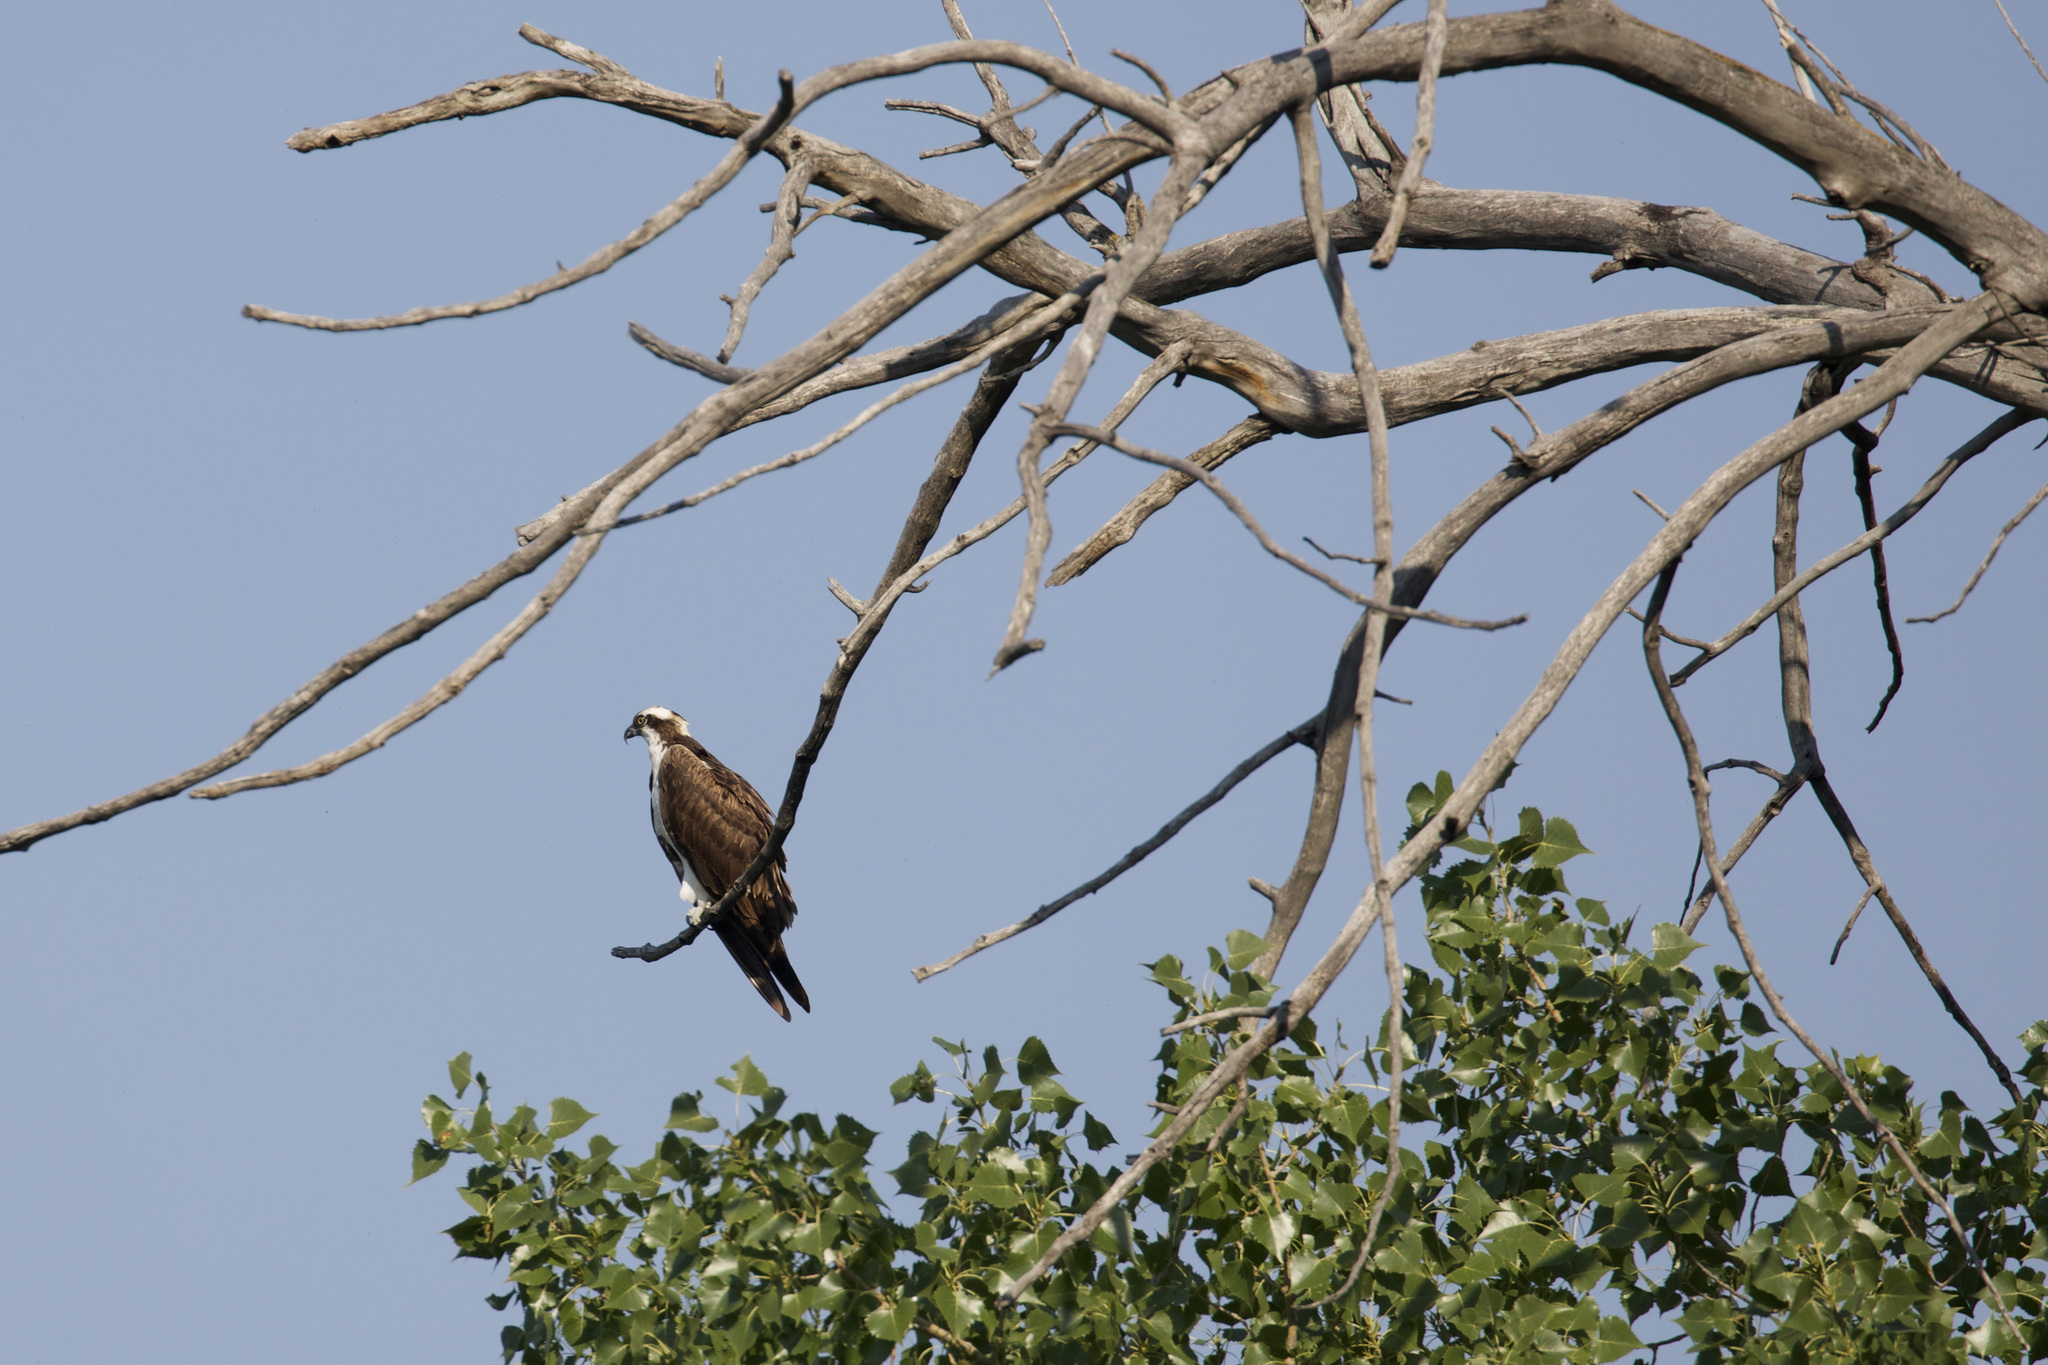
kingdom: Animalia
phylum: Chordata
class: Aves
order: Accipitriformes
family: Pandionidae
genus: Pandion
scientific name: Pandion haliaetus
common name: Osprey
